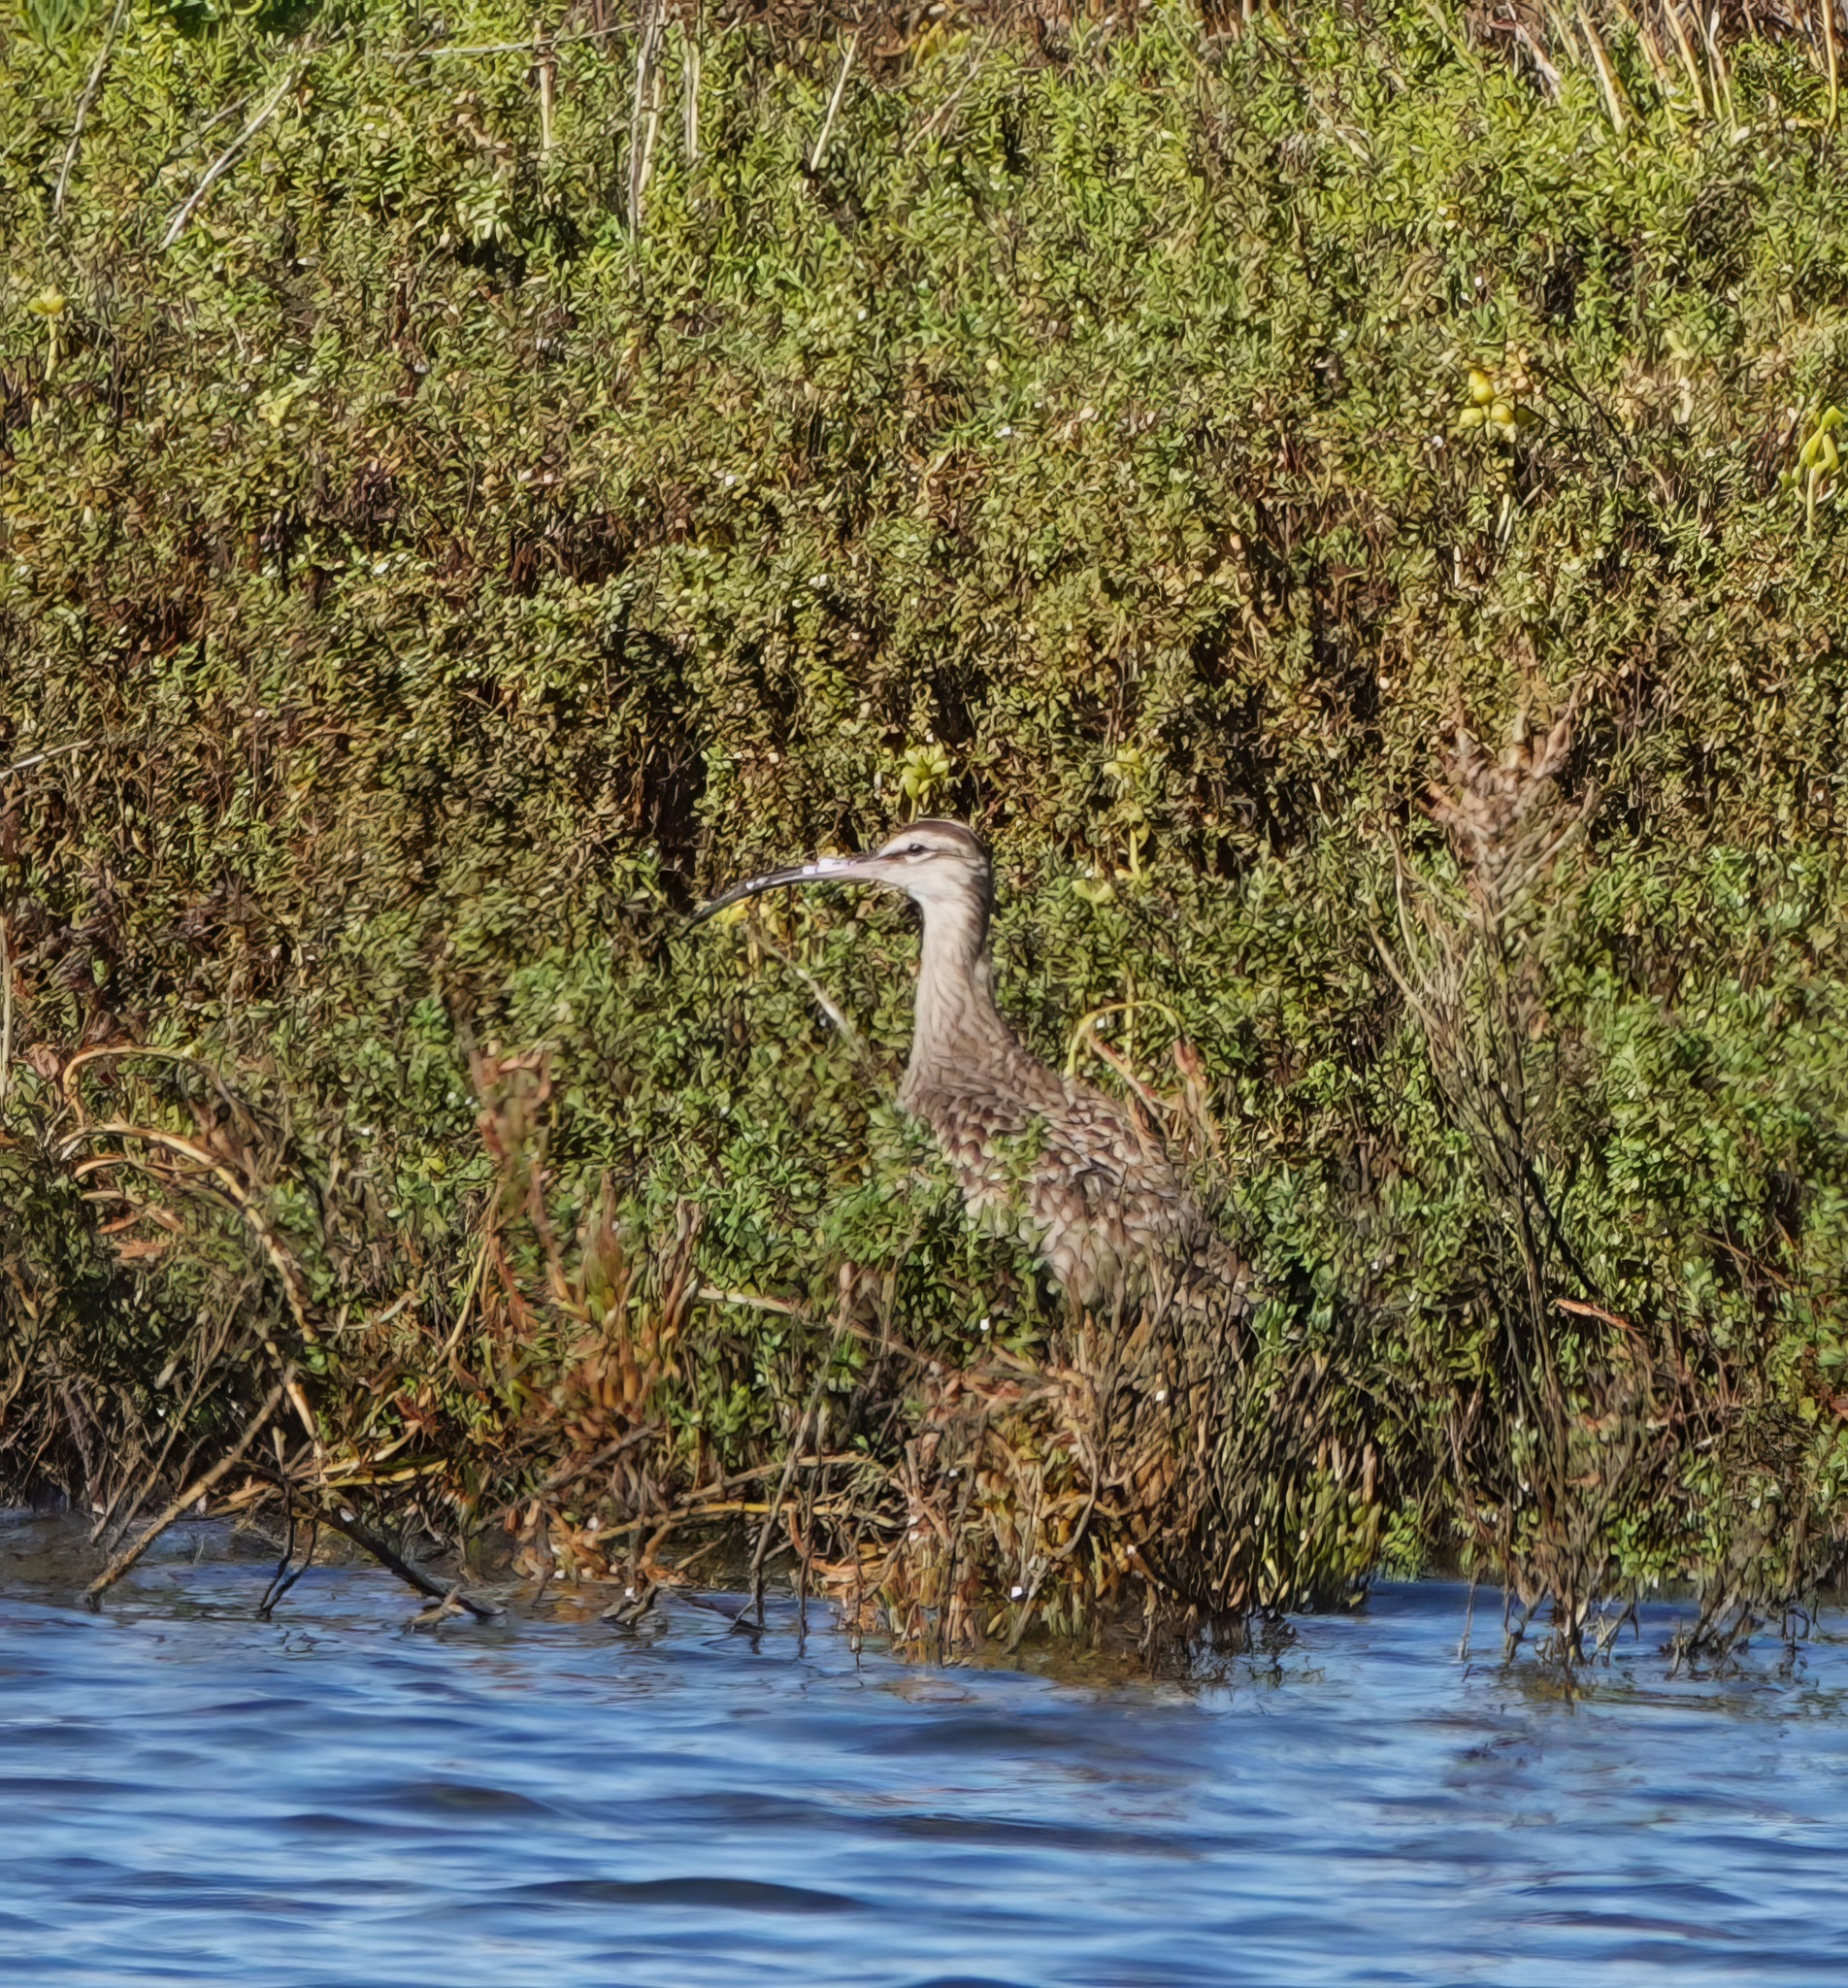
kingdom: Animalia
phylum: Chordata
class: Aves
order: Charadriiformes
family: Scolopacidae
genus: Numenius
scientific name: Numenius phaeopus
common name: Whimbrel
